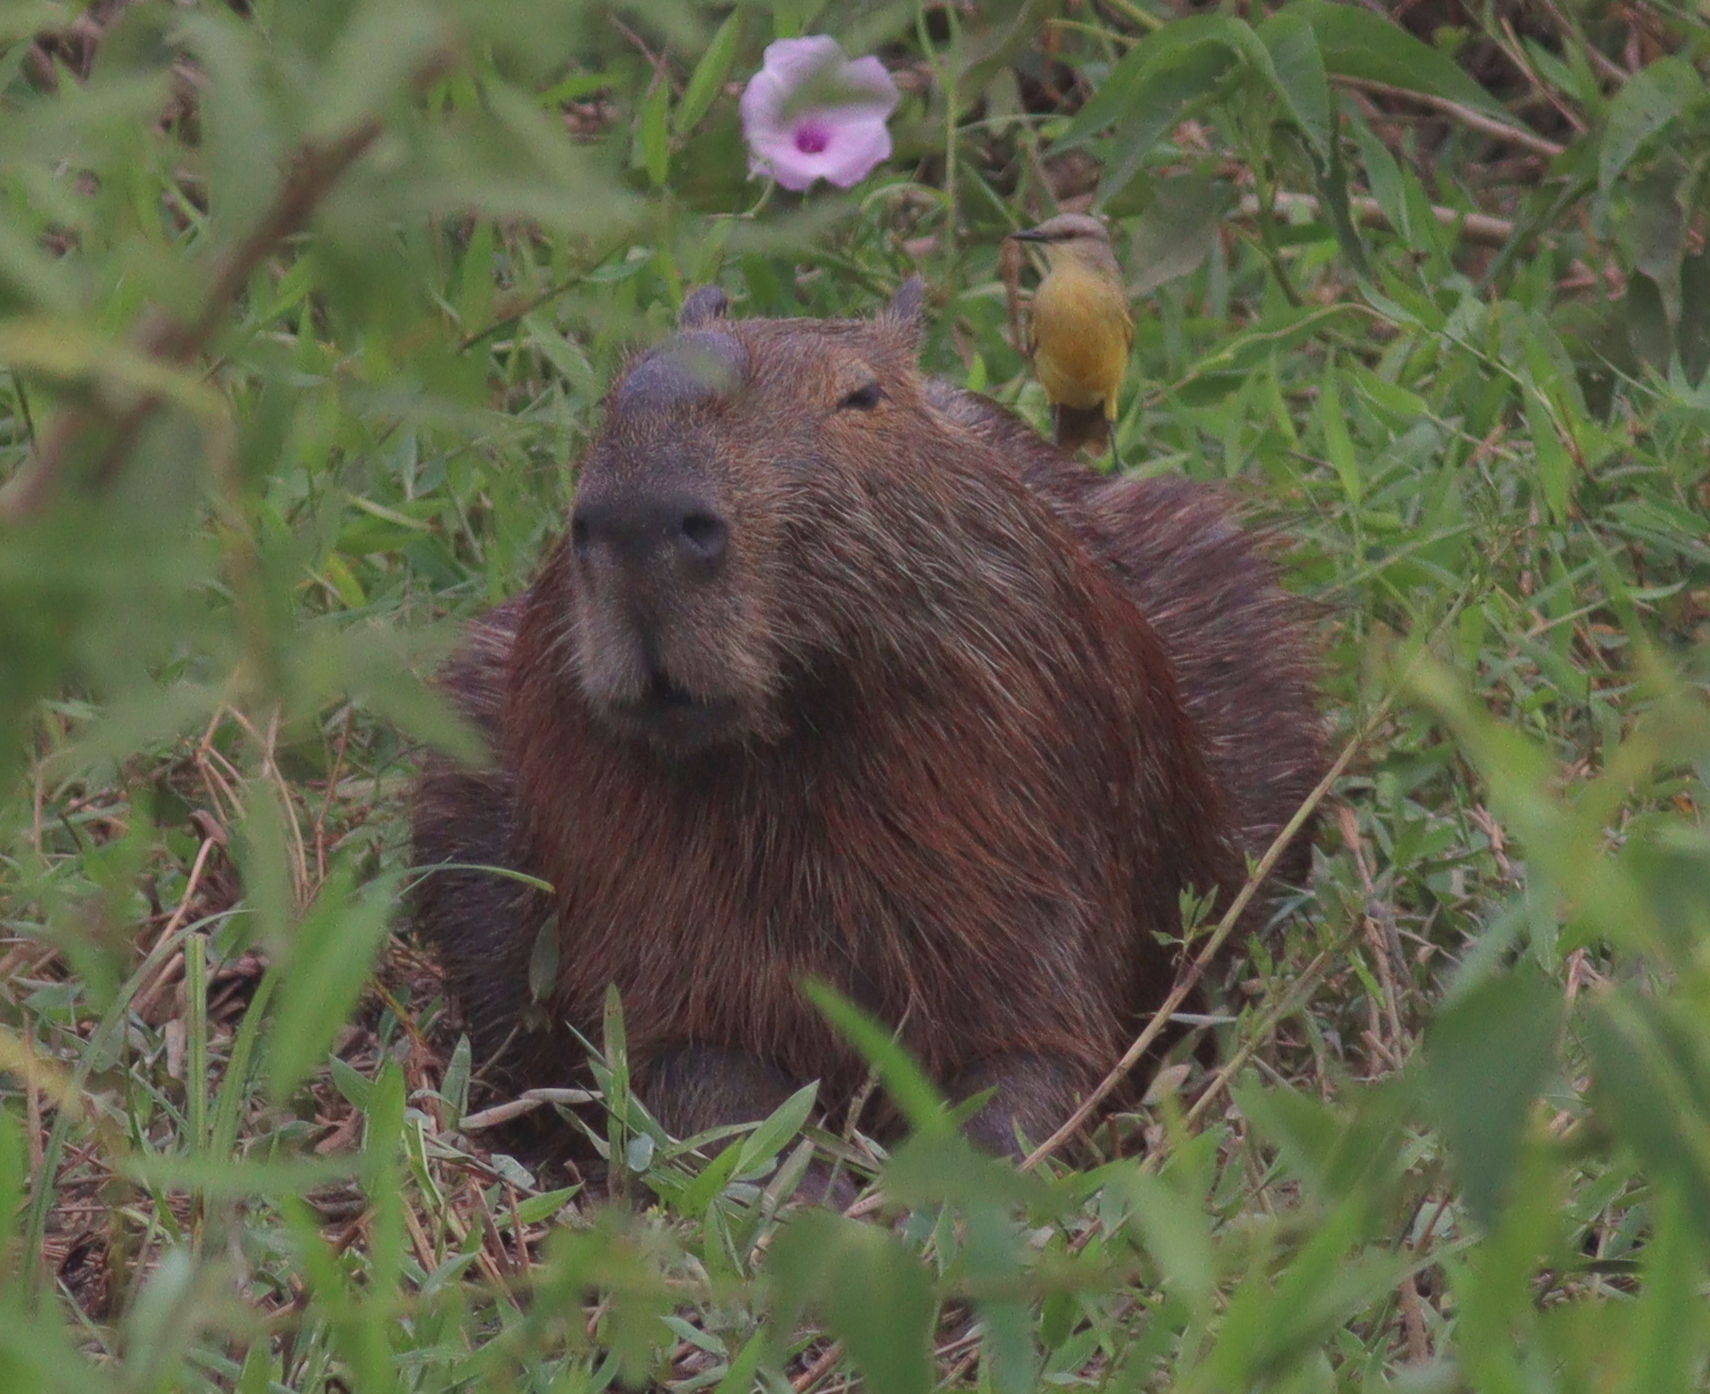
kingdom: Animalia
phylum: Chordata
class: Mammalia
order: Rodentia
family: Caviidae
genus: Hydrochoerus
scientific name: Hydrochoerus hydrochaeris
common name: Capybara
